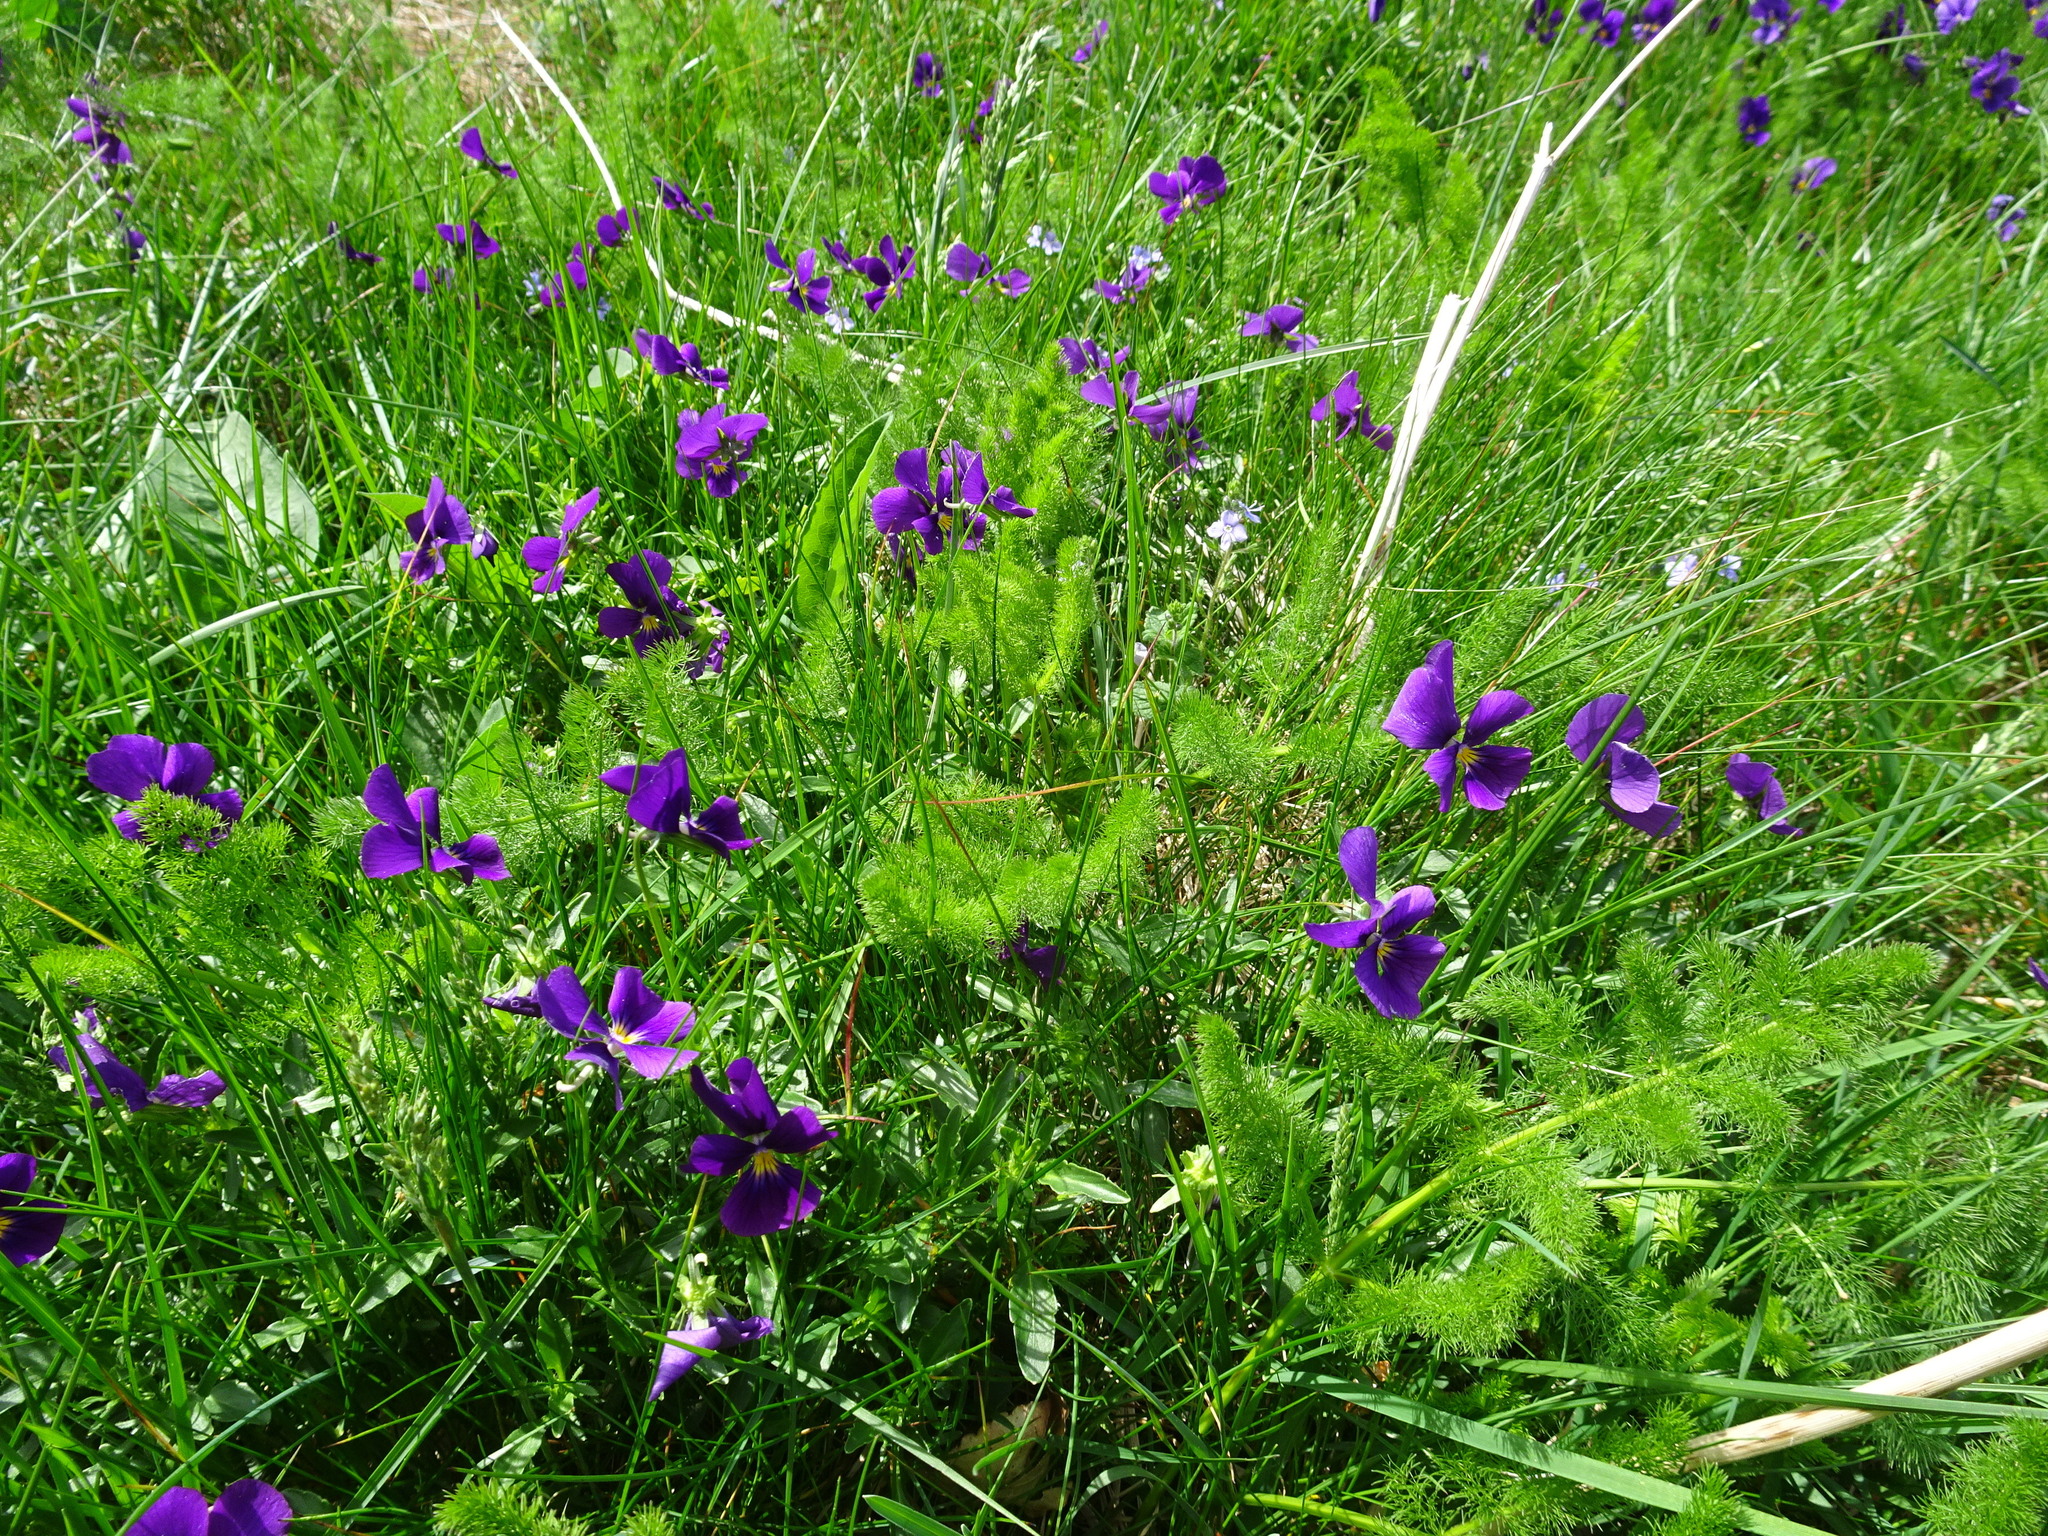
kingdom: Plantae
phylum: Tracheophyta
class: Magnoliopsida
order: Malpighiales
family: Violaceae
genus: Viola
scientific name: Viola lutea
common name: Mountain pansy
